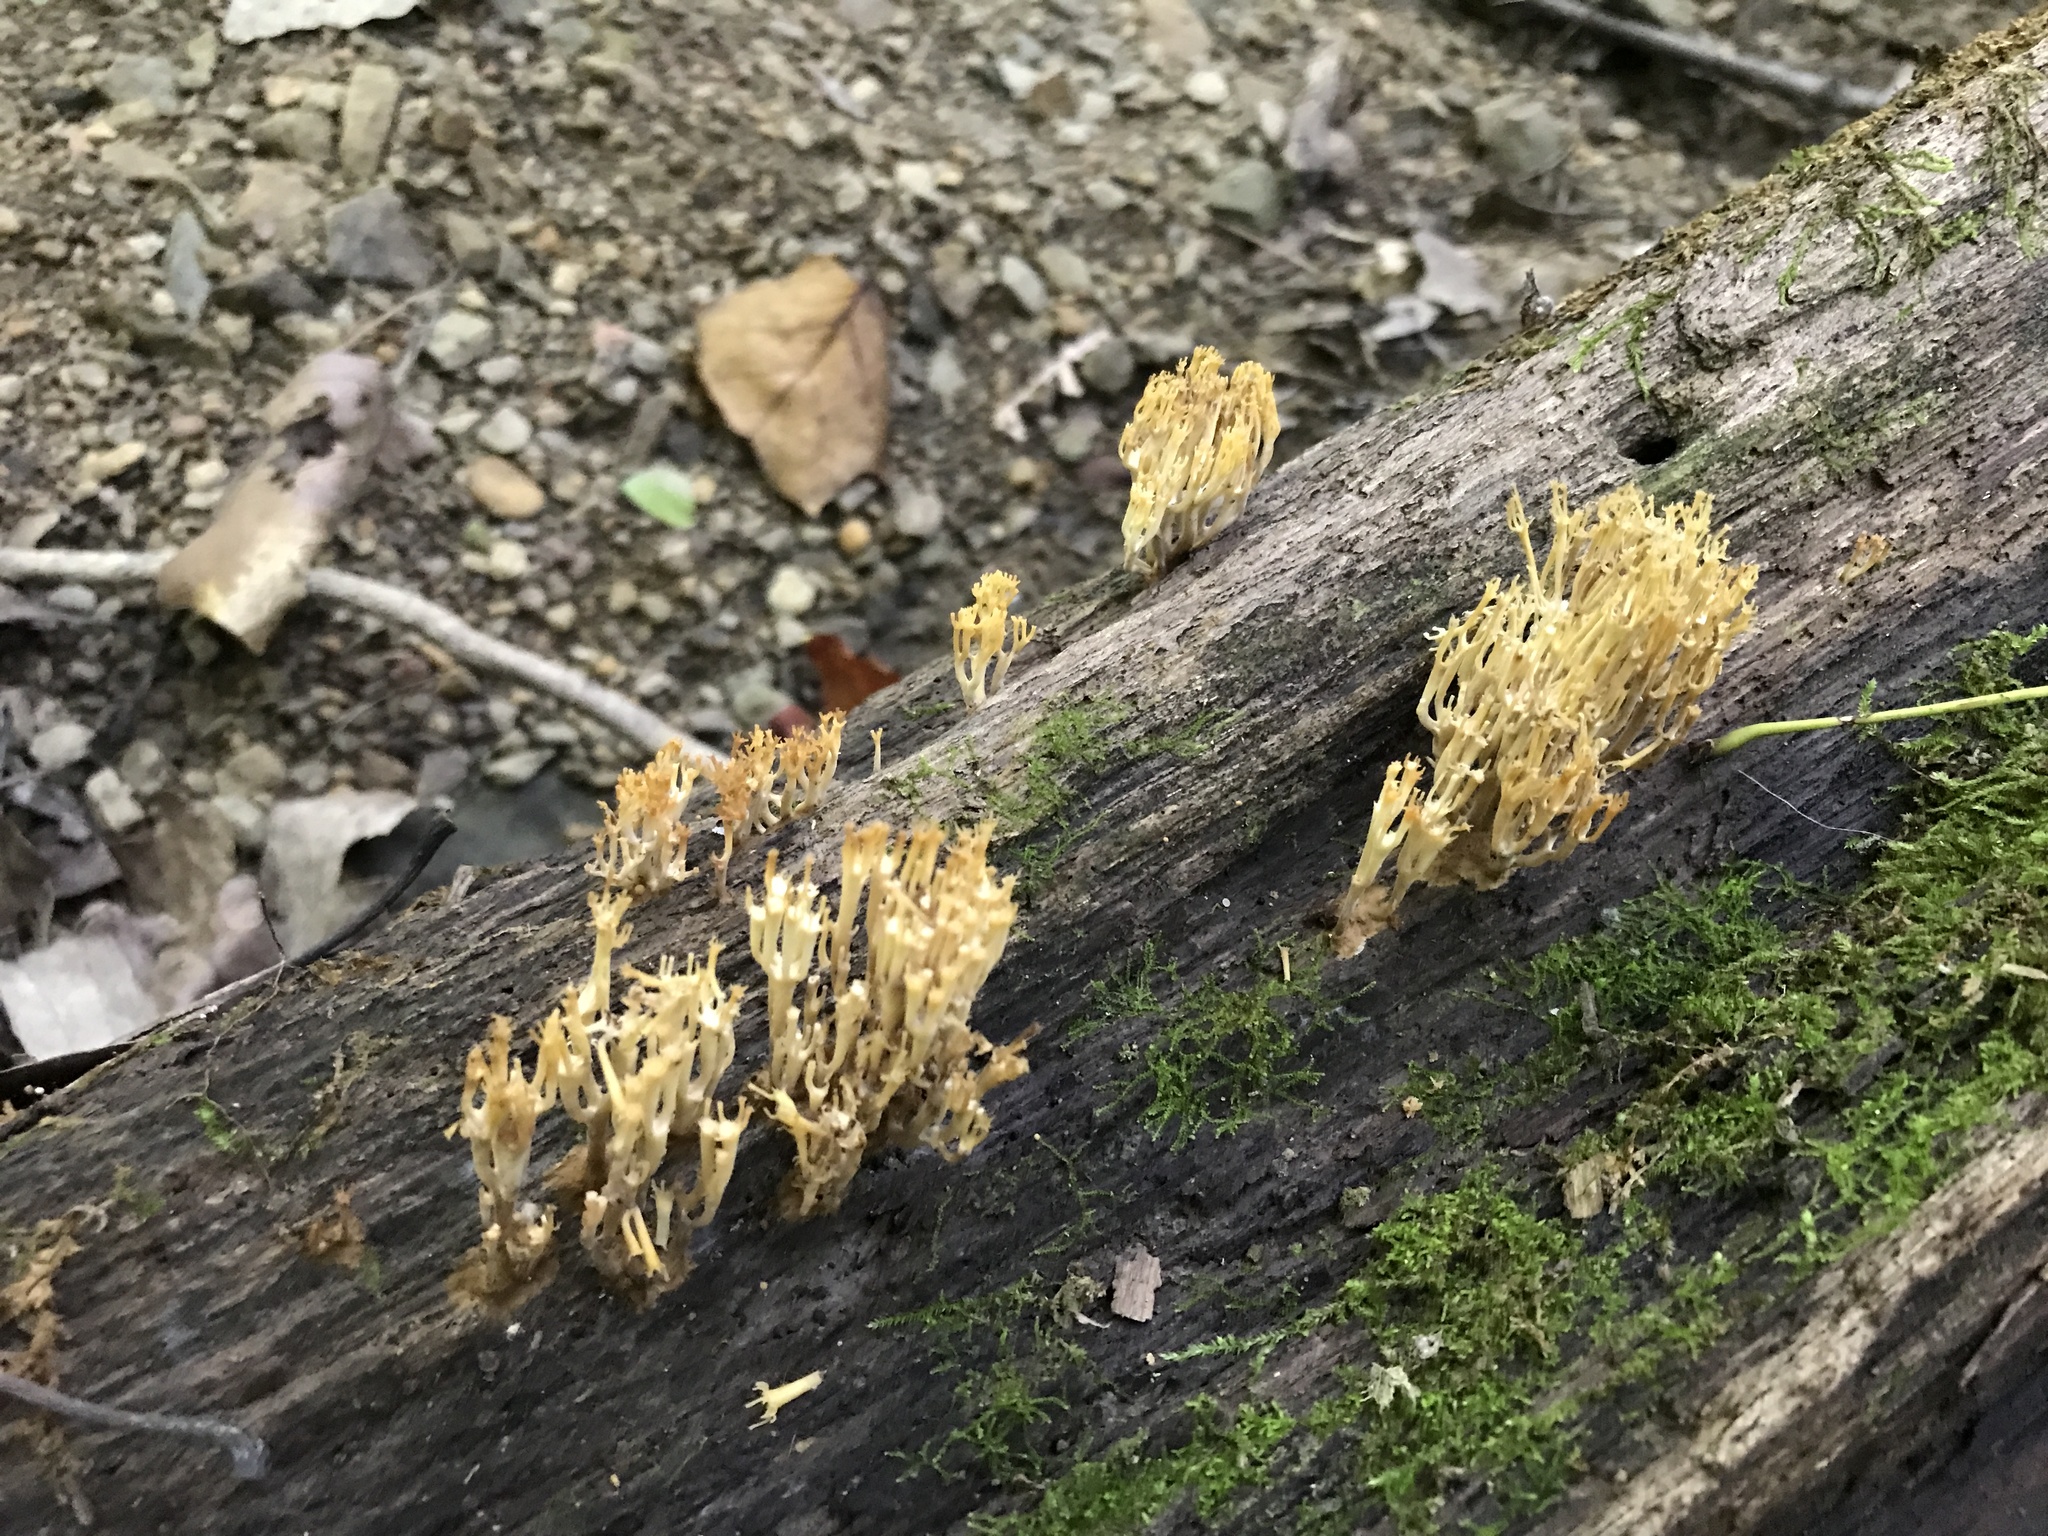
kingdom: Fungi
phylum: Basidiomycota
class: Agaricomycetes
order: Russulales
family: Auriscalpiaceae
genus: Artomyces
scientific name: Artomyces pyxidatus
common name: Crown-tipped coral fungus
